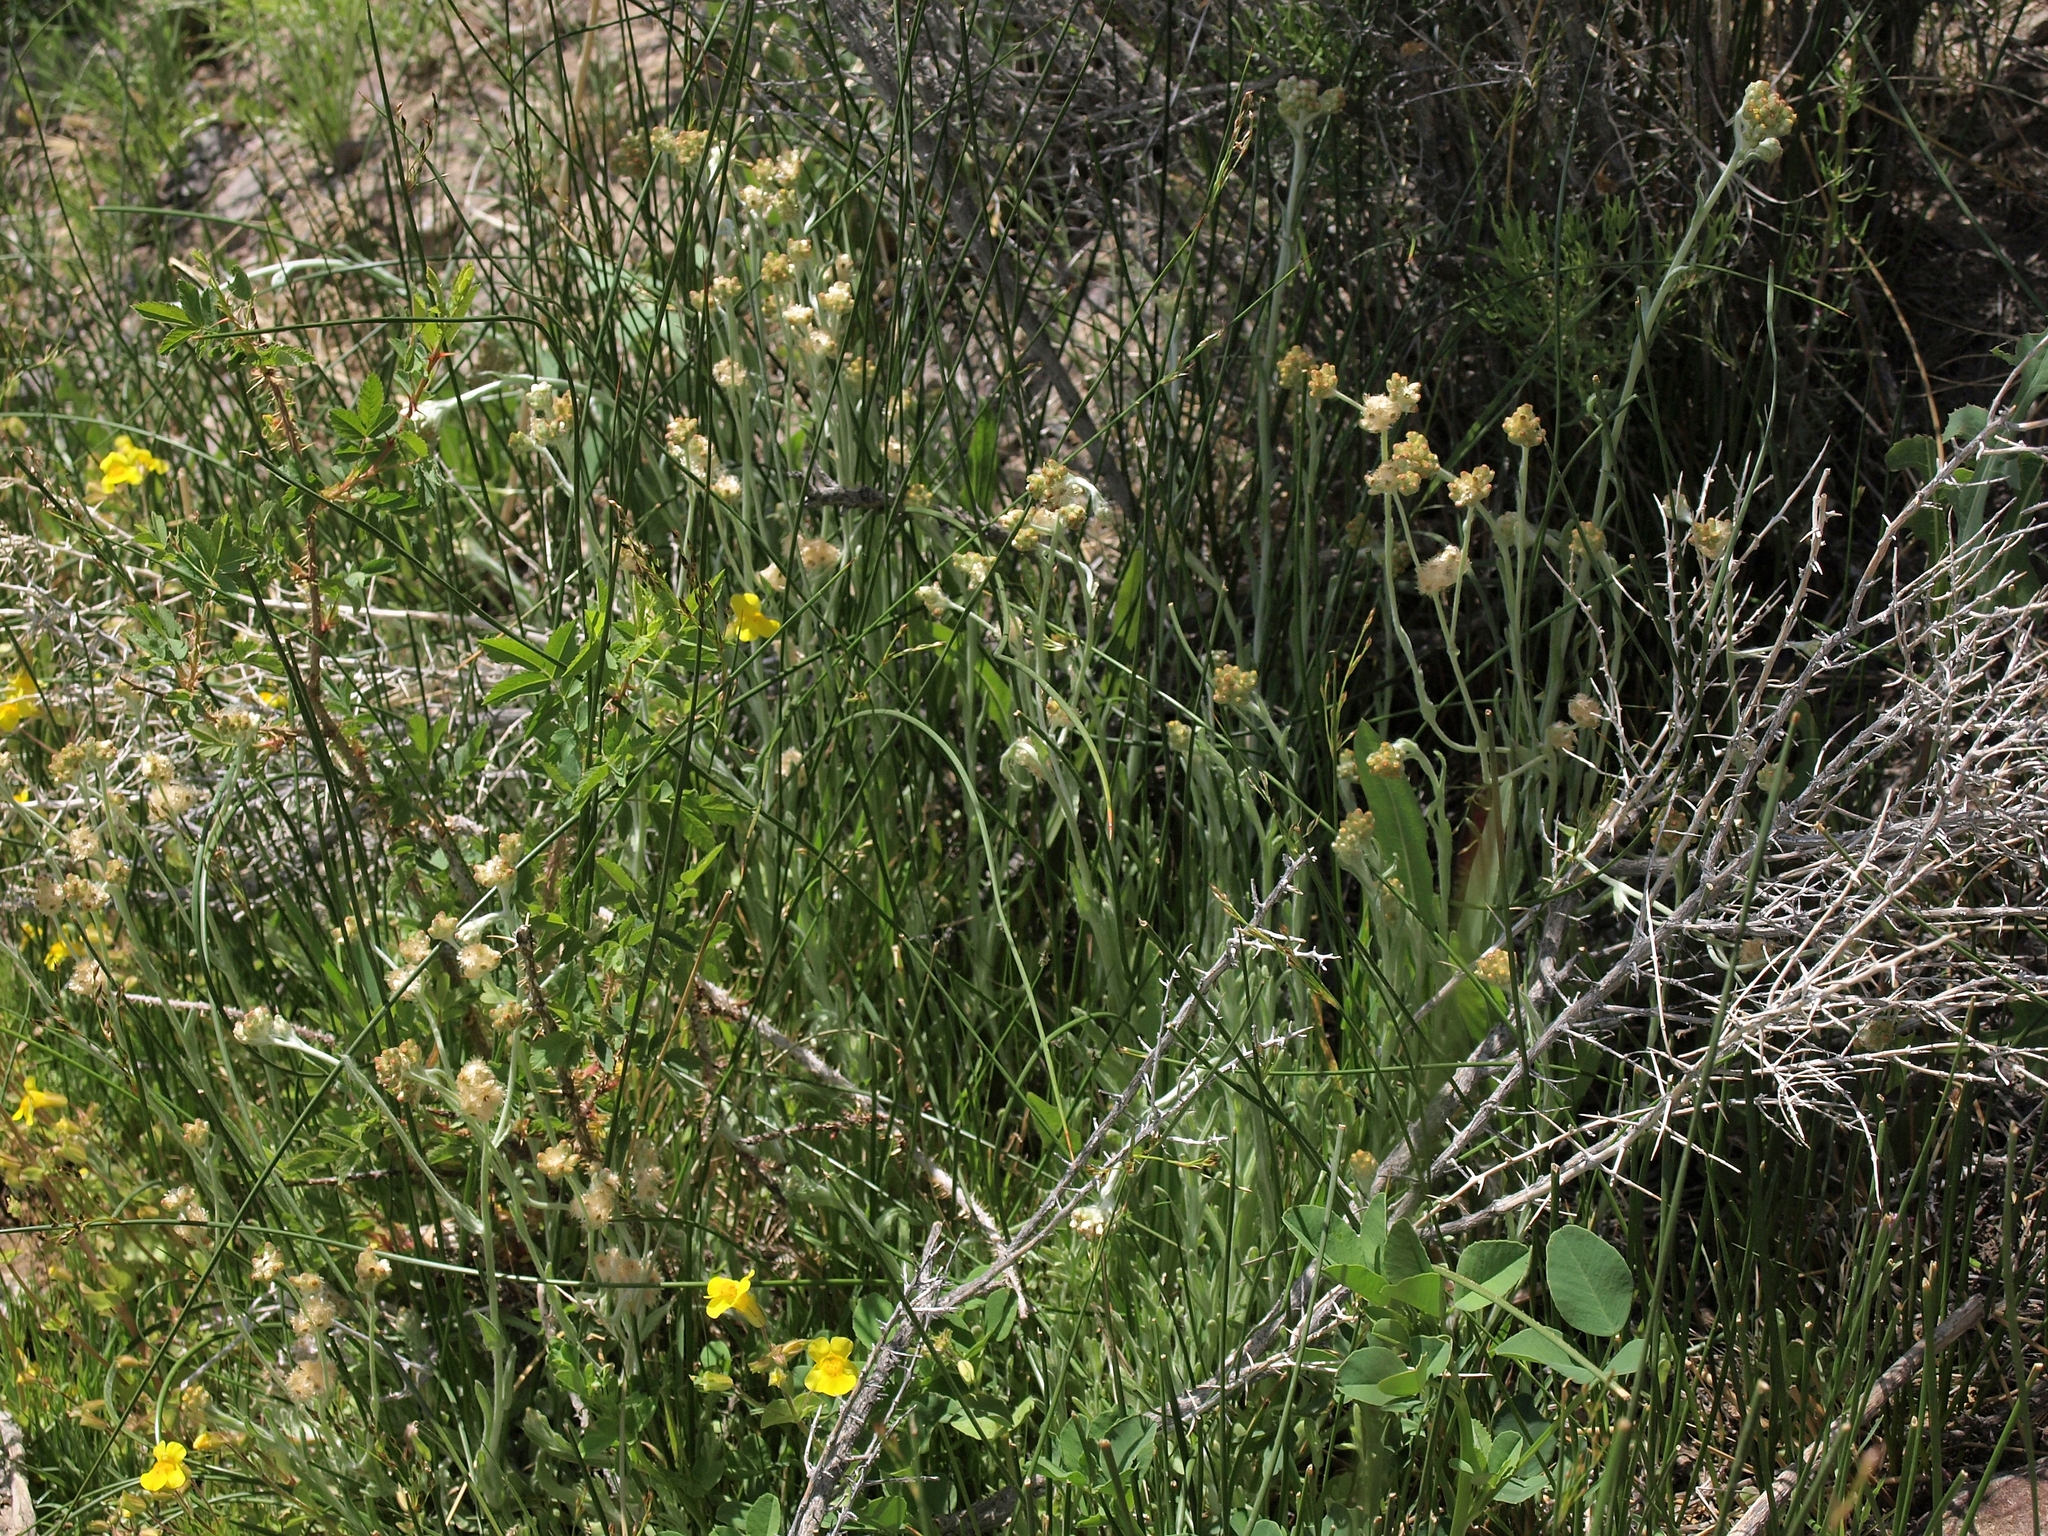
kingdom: Plantae
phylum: Tracheophyta
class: Magnoliopsida
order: Asterales
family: Asteraceae
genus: Helichrysum
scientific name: Helichrysum luteoalbum
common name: Daisy
